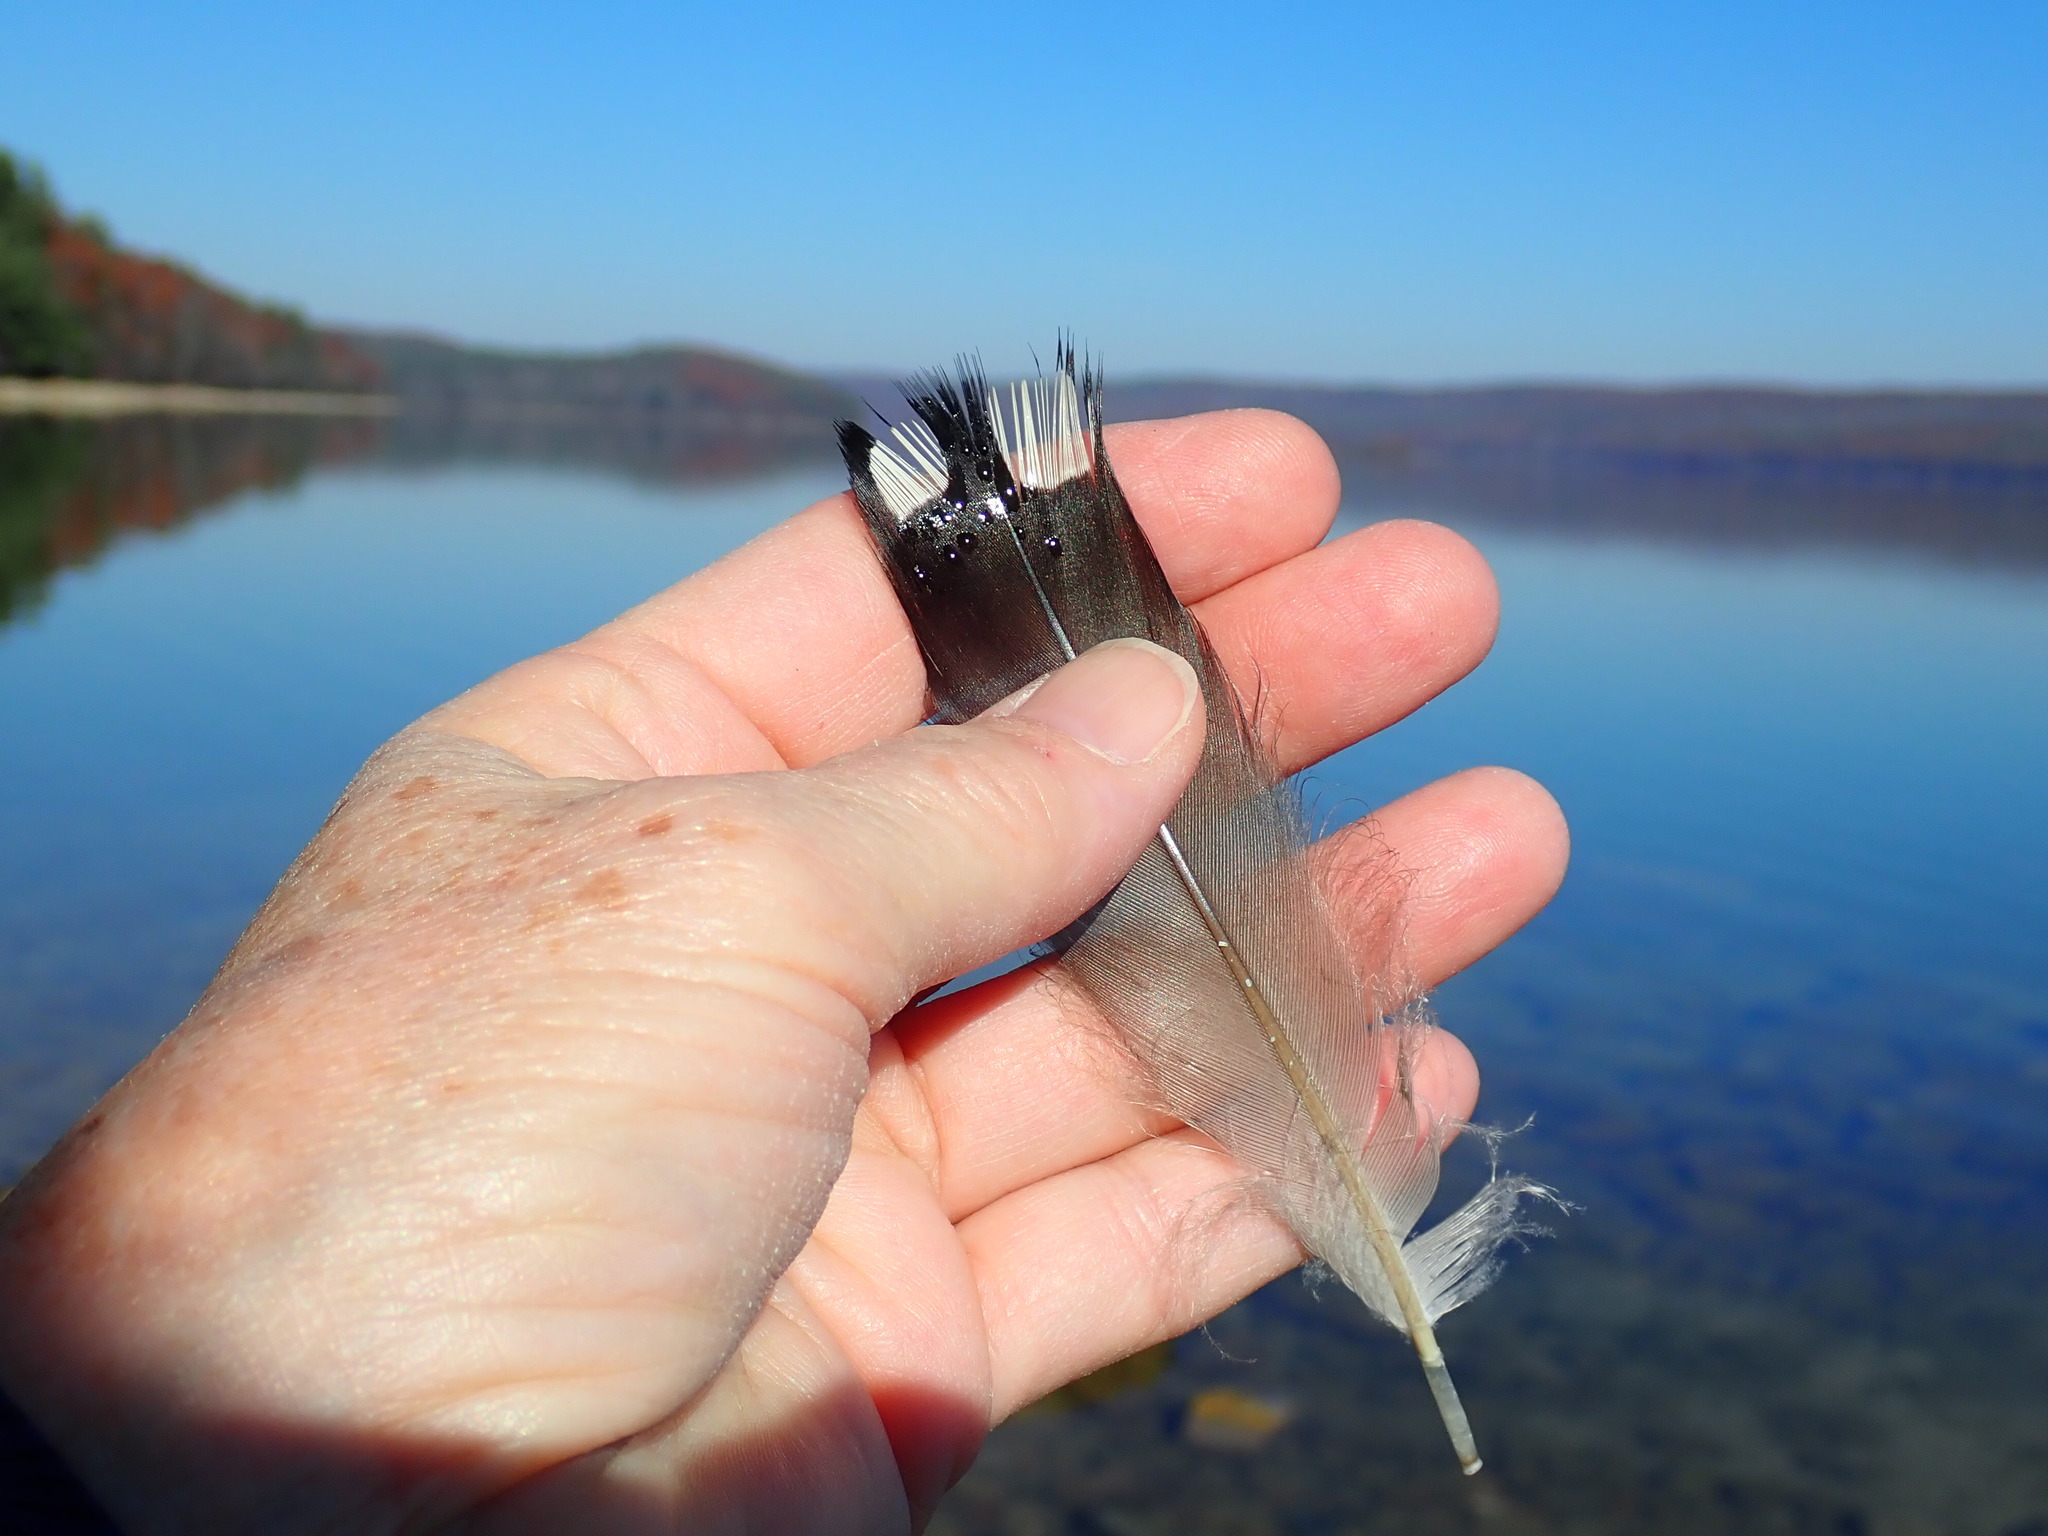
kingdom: Animalia
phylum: Chordata
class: Aves
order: Gaviiformes
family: Gaviidae
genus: Gavia
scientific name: Gavia immer
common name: Common loon
